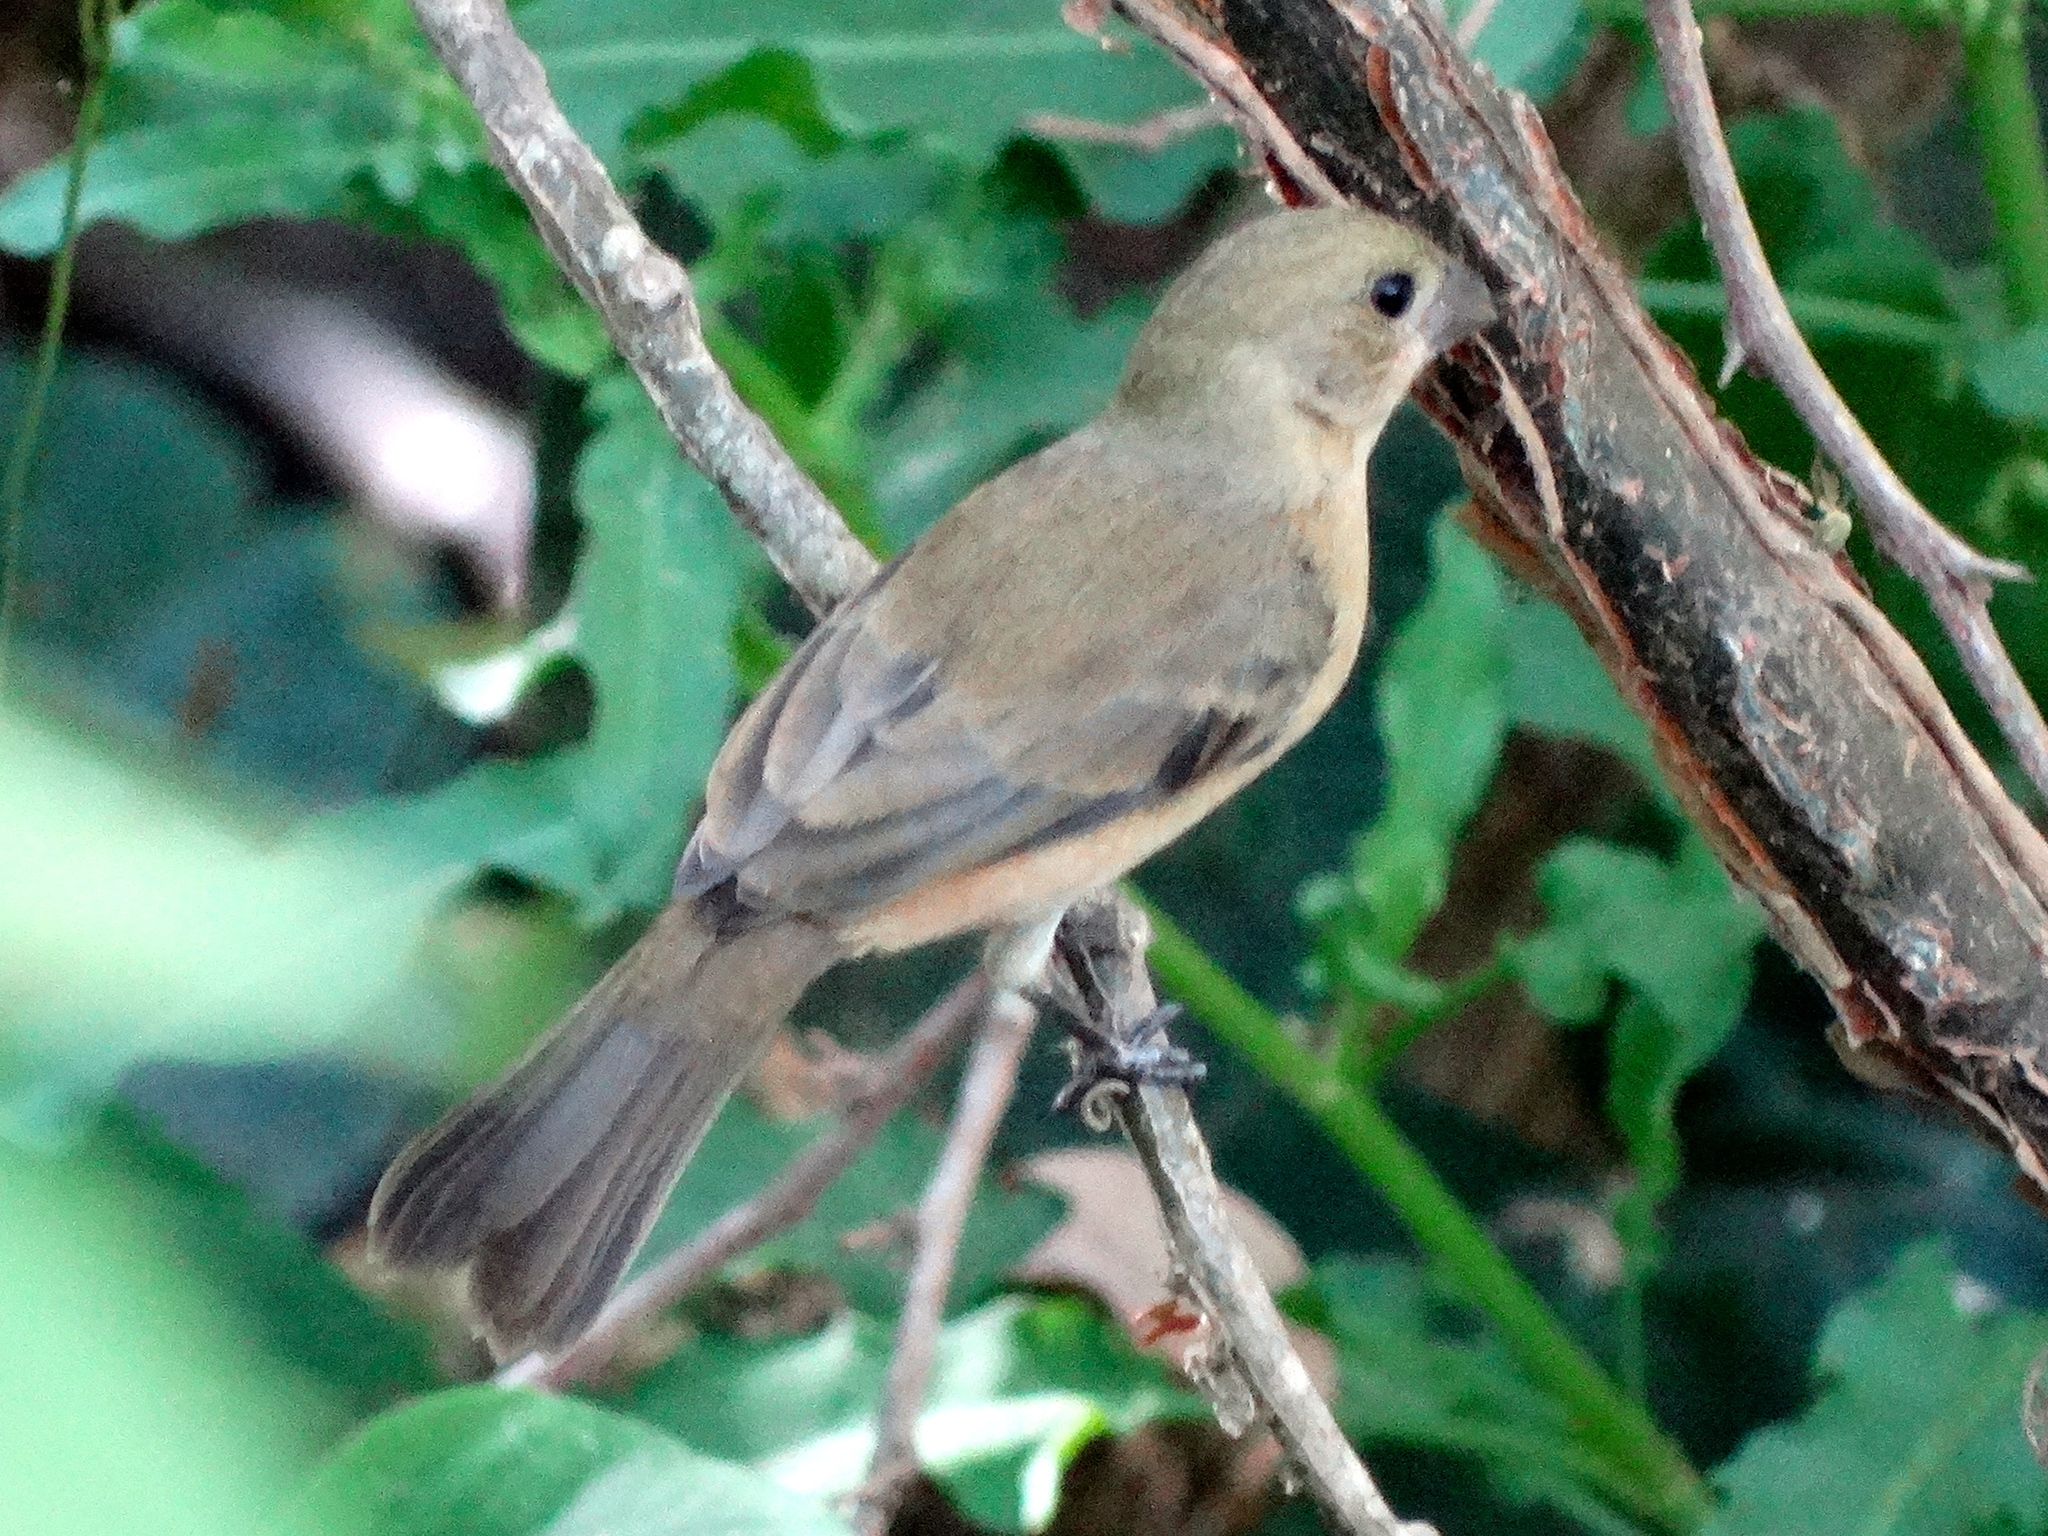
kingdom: Animalia
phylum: Chordata
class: Aves
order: Passeriformes
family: Thraupidae
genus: Sporophila
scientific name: Sporophila torqueola
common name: White-collared seedeater
